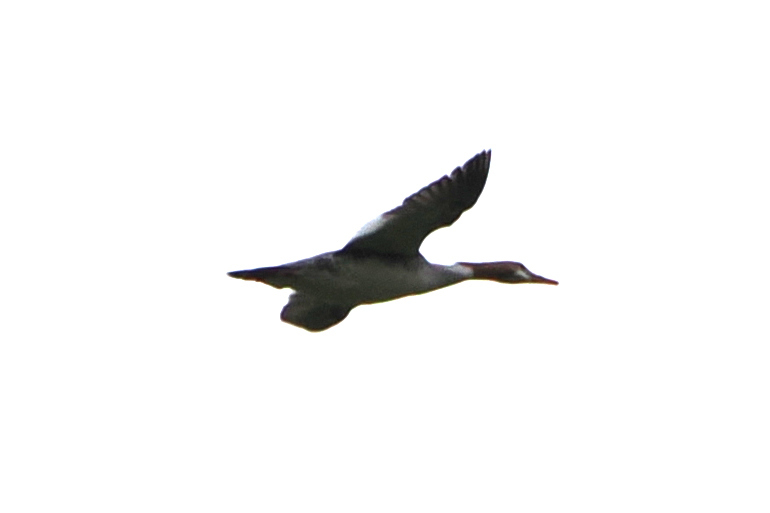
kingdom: Animalia
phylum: Chordata
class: Aves
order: Anseriformes
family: Anatidae
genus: Mergus
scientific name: Mergus merganser
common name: Common merganser
